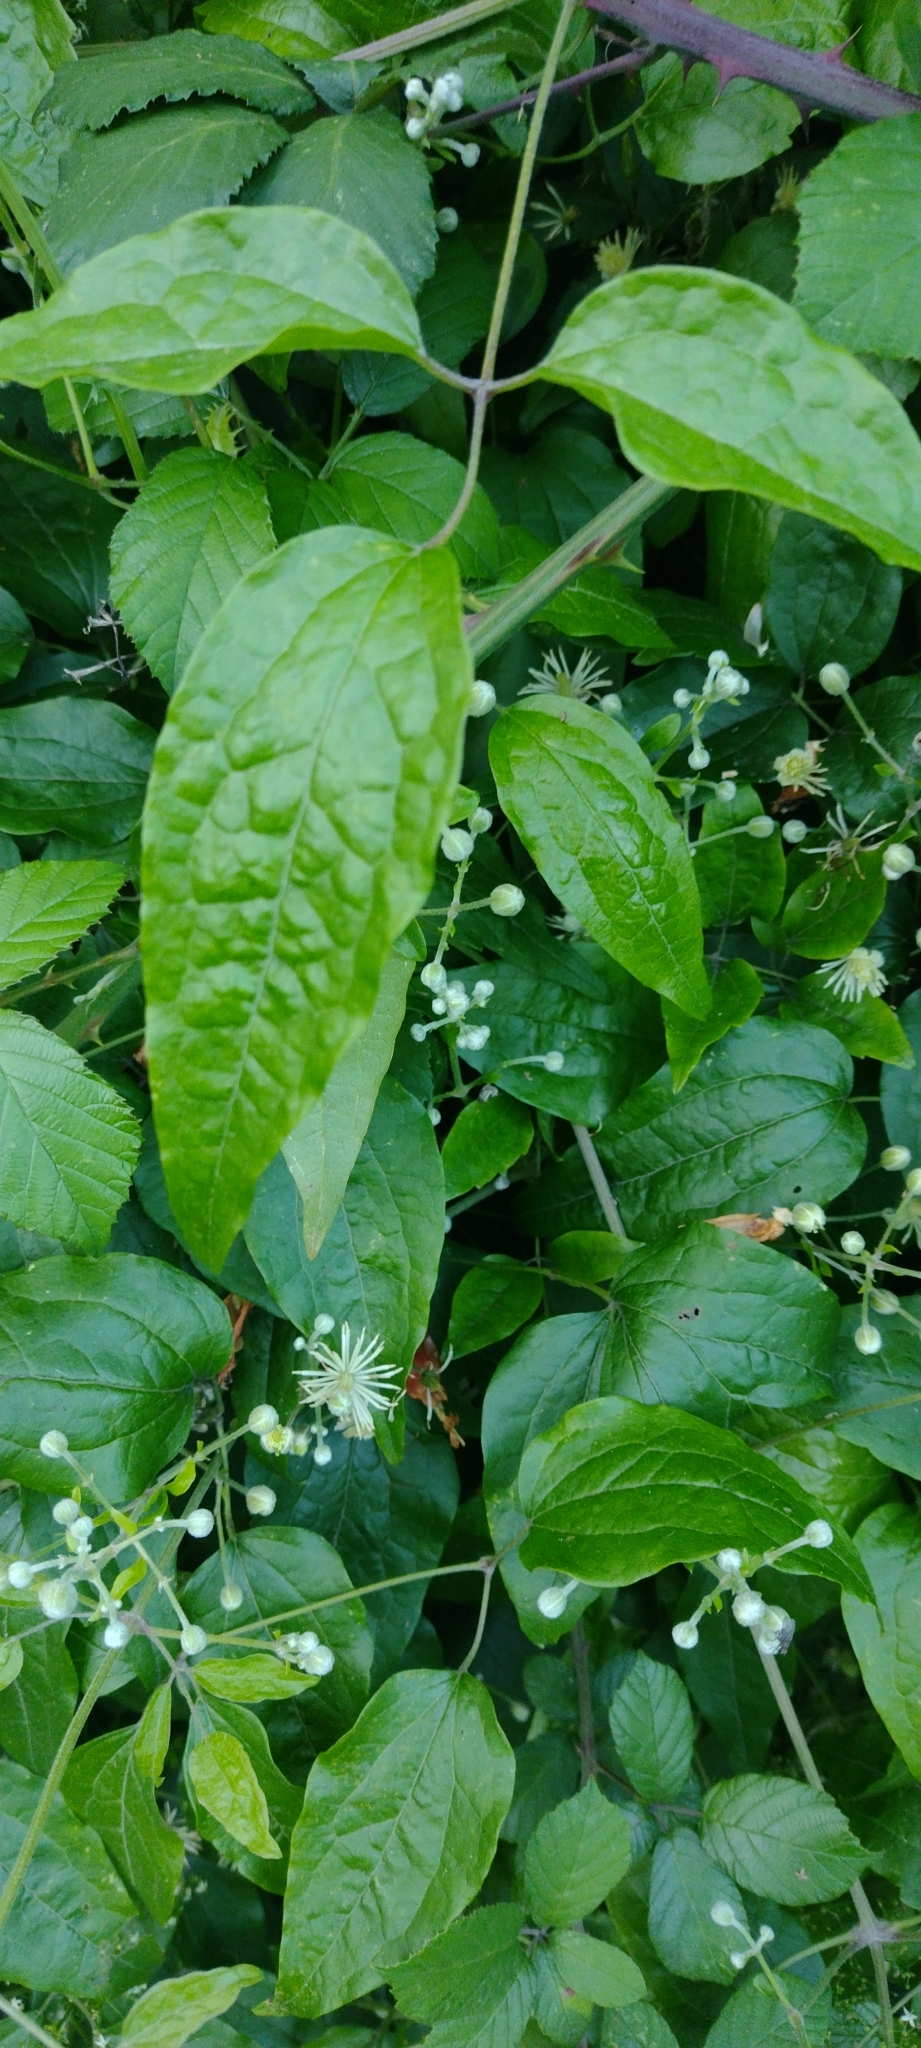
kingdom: Plantae
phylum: Tracheophyta
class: Magnoliopsida
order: Ranunculales
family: Ranunculaceae
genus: Clematis
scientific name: Clematis vitalba
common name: Evergreen clematis
